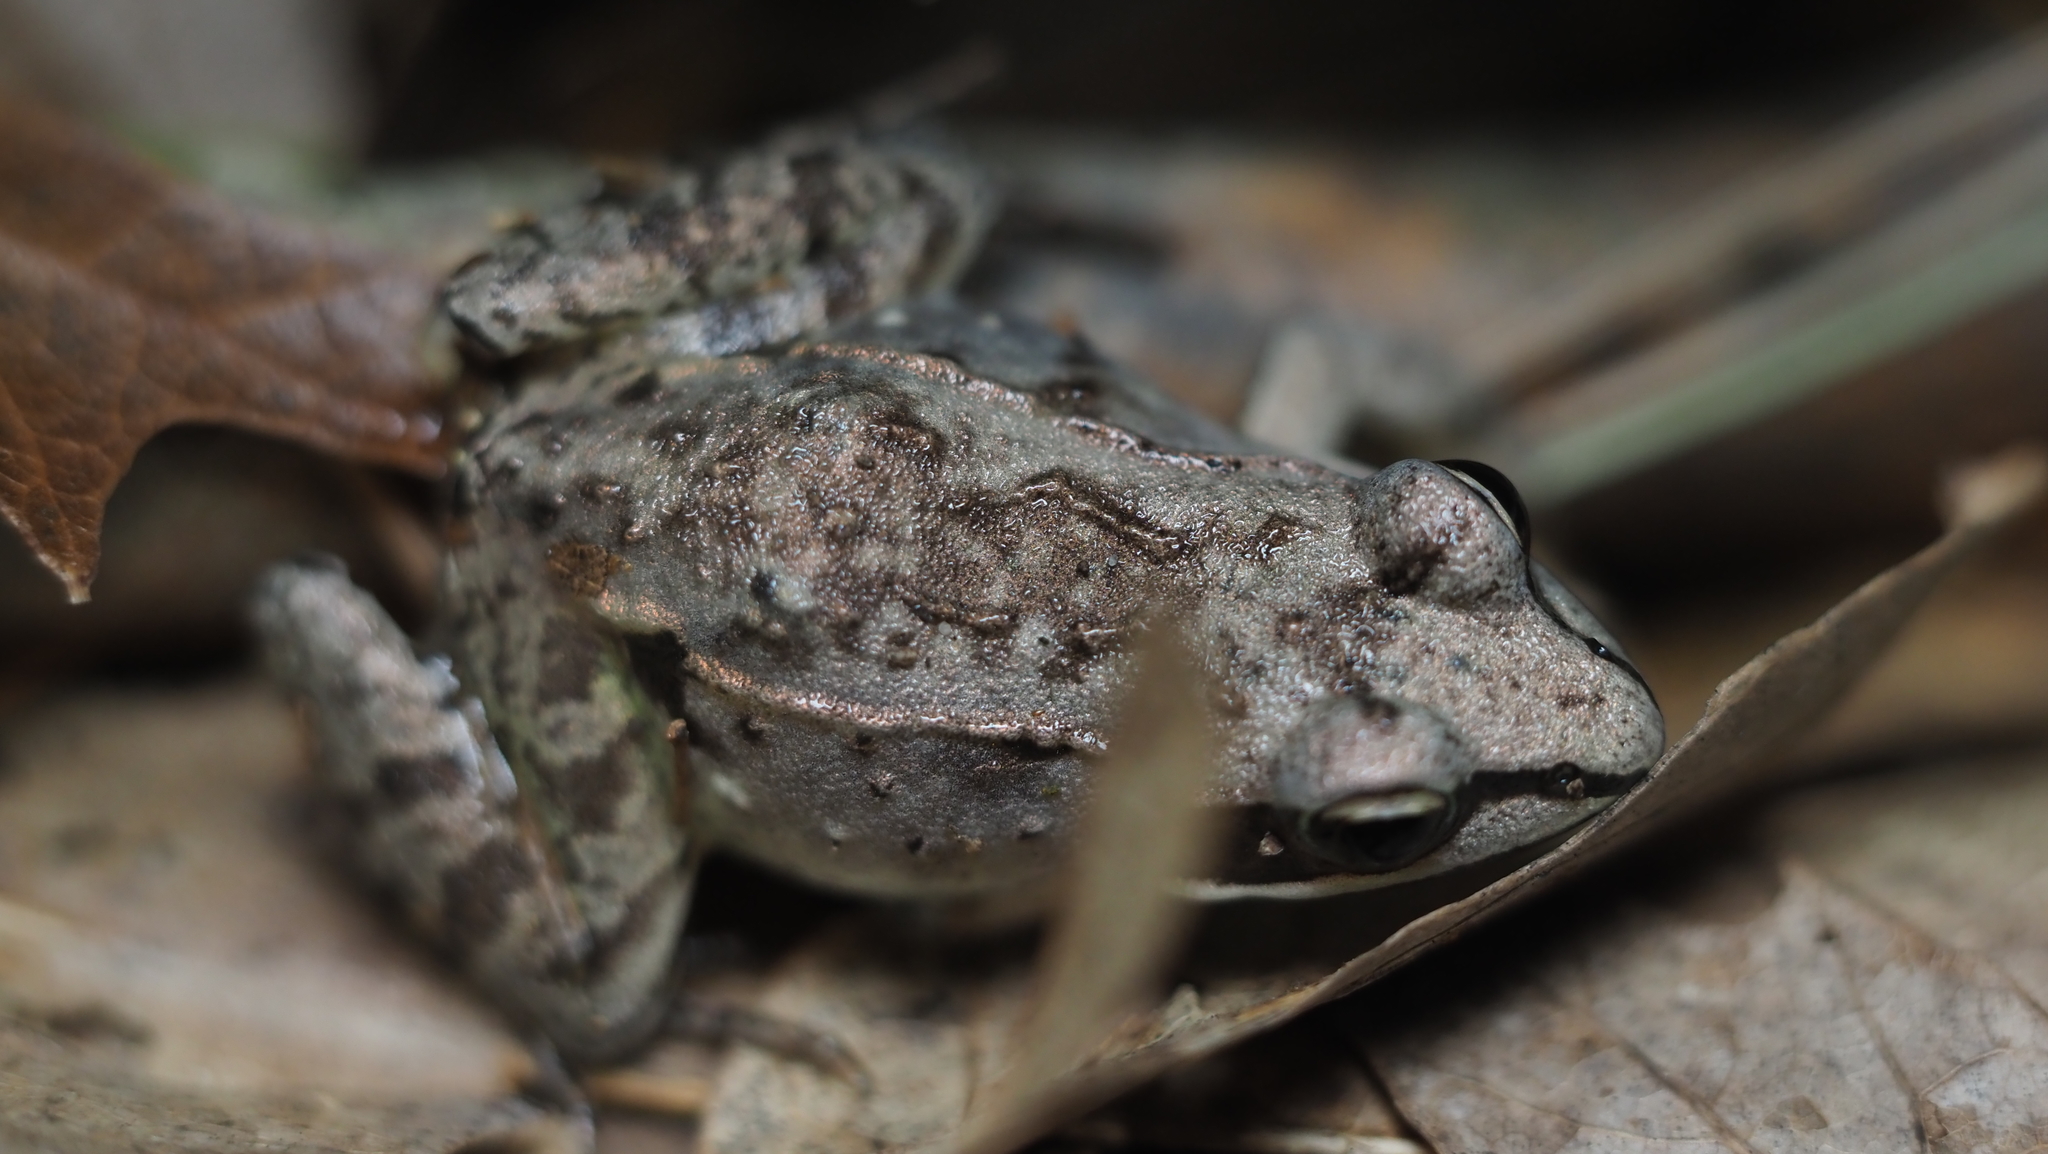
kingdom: Animalia
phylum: Chordata
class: Amphibia
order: Anura
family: Ranidae
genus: Lithobates
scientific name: Lithobates sylvaticus
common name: Wood frog
